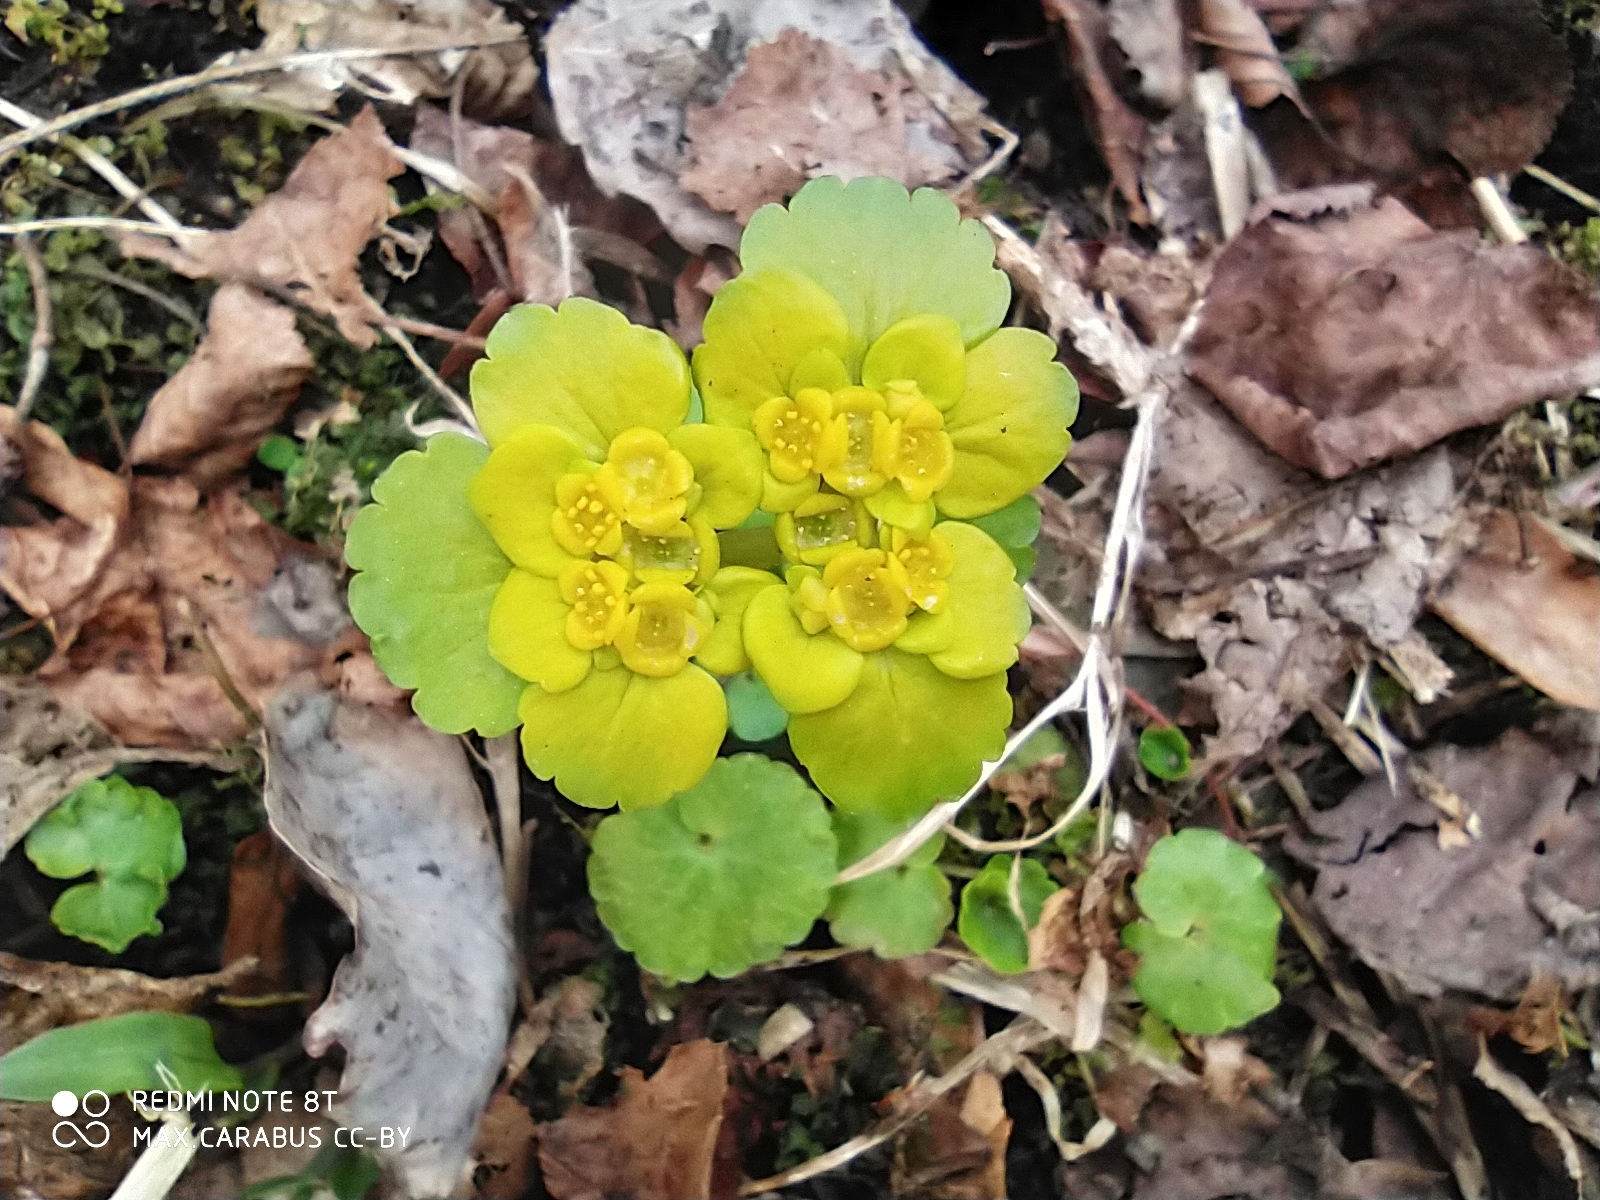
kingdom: Plantae
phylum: Tracheophyta
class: Magnoliopsida
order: Saxifragales
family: Saxifragaceae
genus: Chrysosplenium
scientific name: Chrysosplenium alternifolium
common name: Alternate-leaved golden-saxifrage
